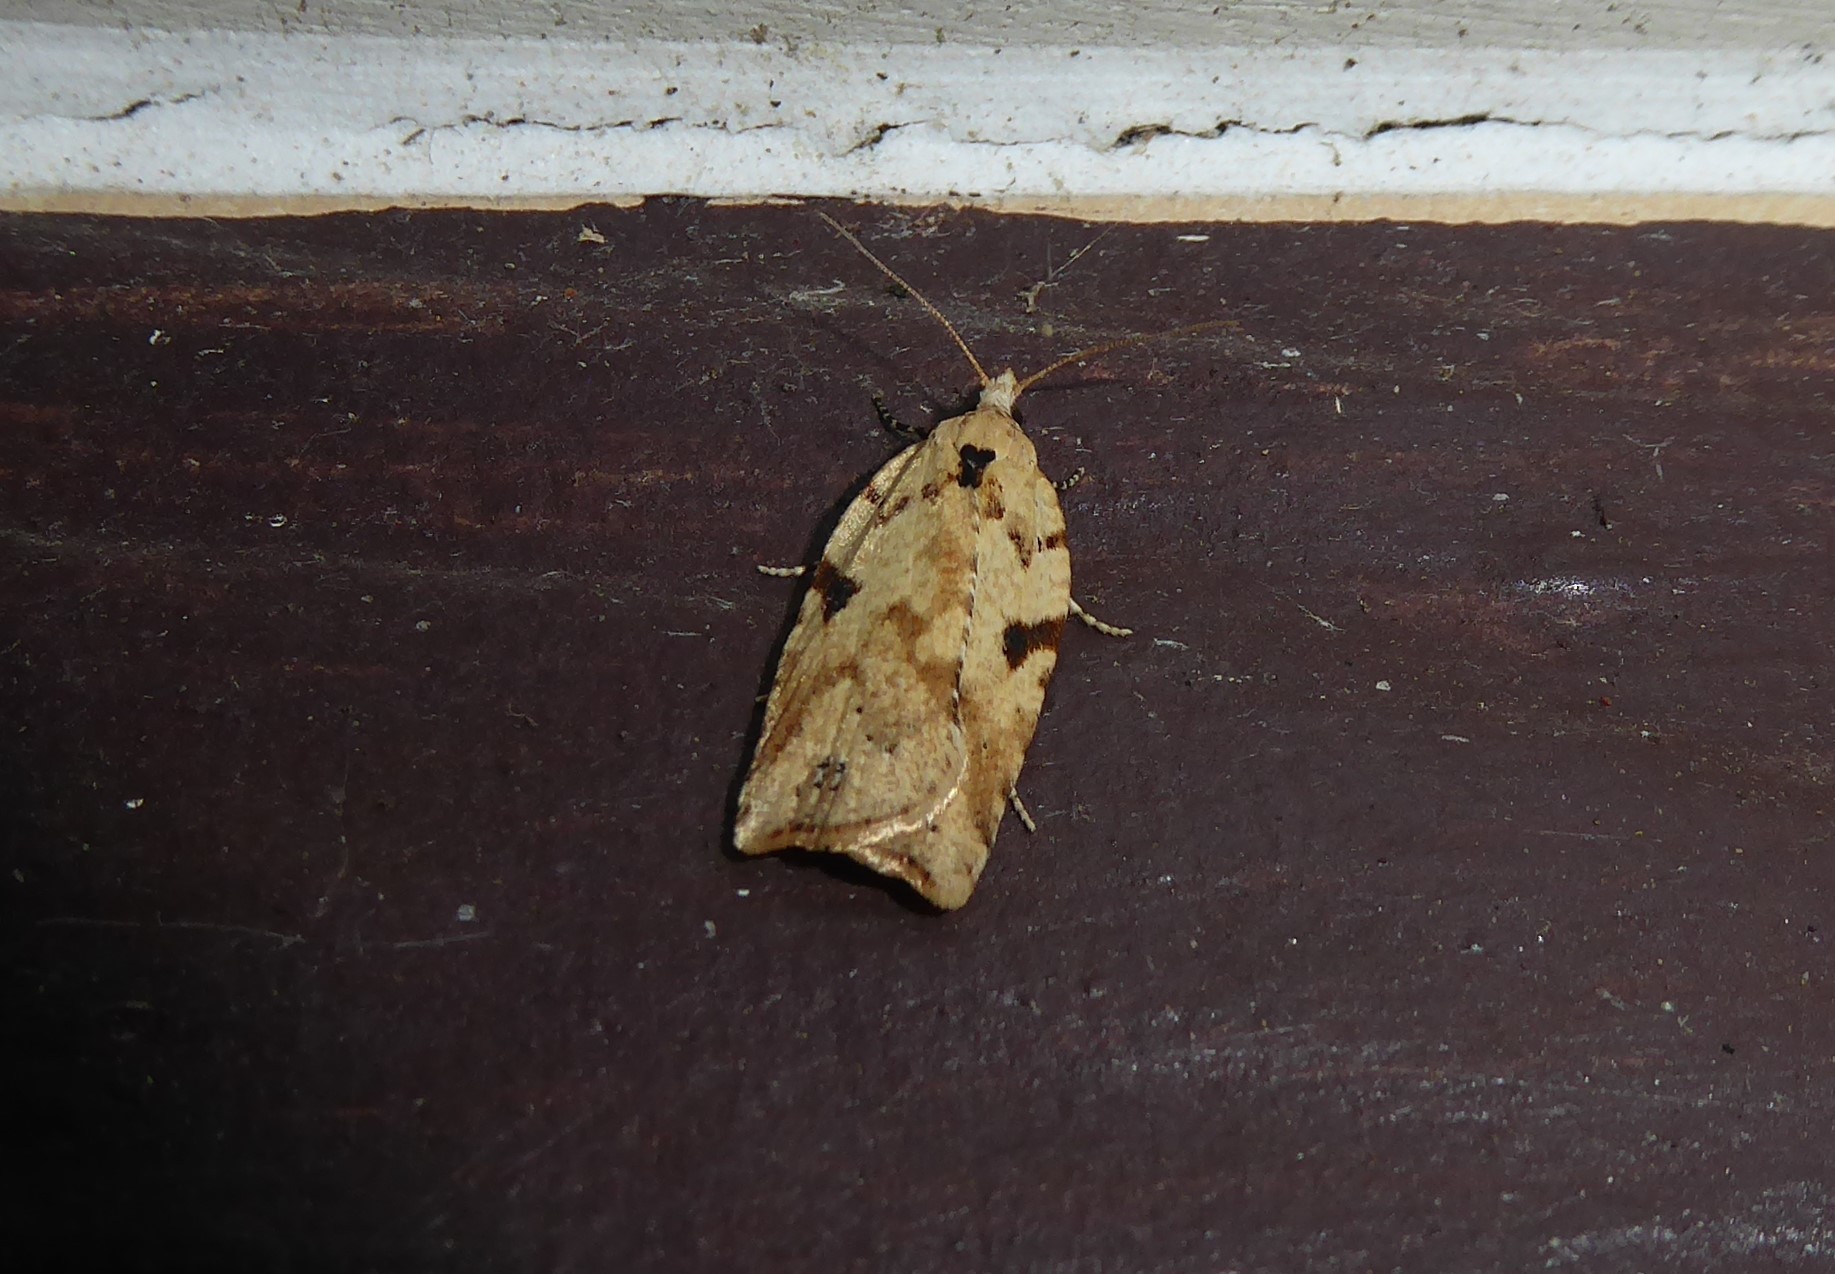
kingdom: Animalia
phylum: Arthropoda
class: Insecta
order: Lepidoptera
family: Tortricidae
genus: Ctenopseustis
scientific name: Ctenopseustis obliquana
